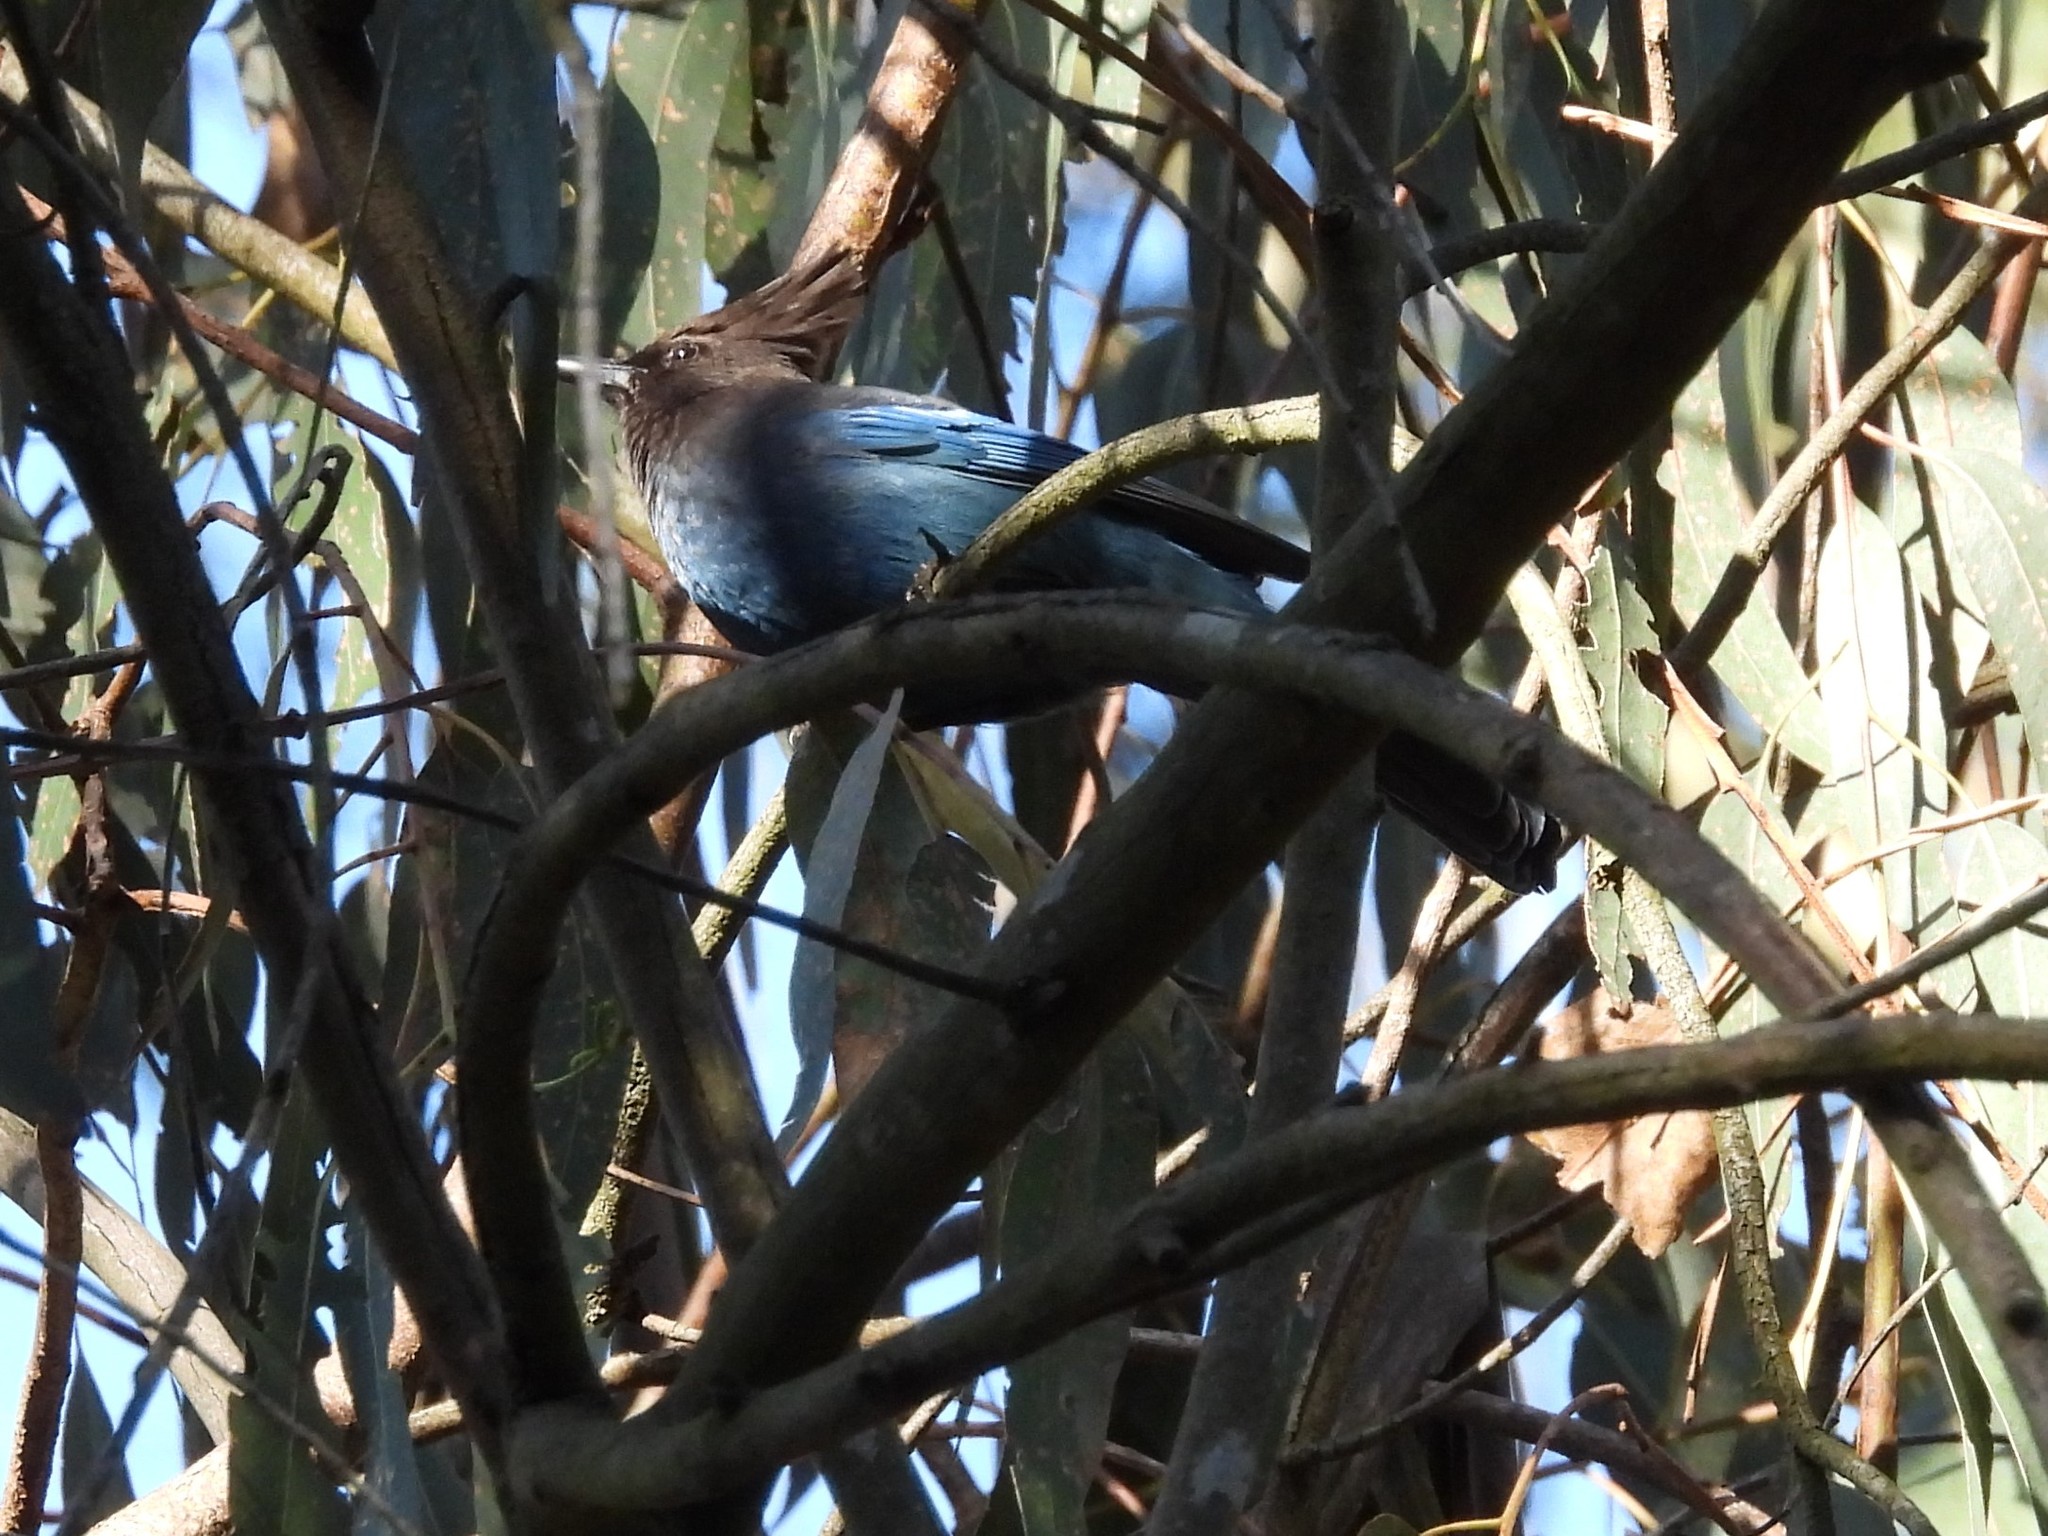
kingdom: Animalia
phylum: Chordata
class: Aves
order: Passeriformes
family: Corvidae
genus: Cyanocitta
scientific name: Cyanocitta stelleri
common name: Steller's jay
